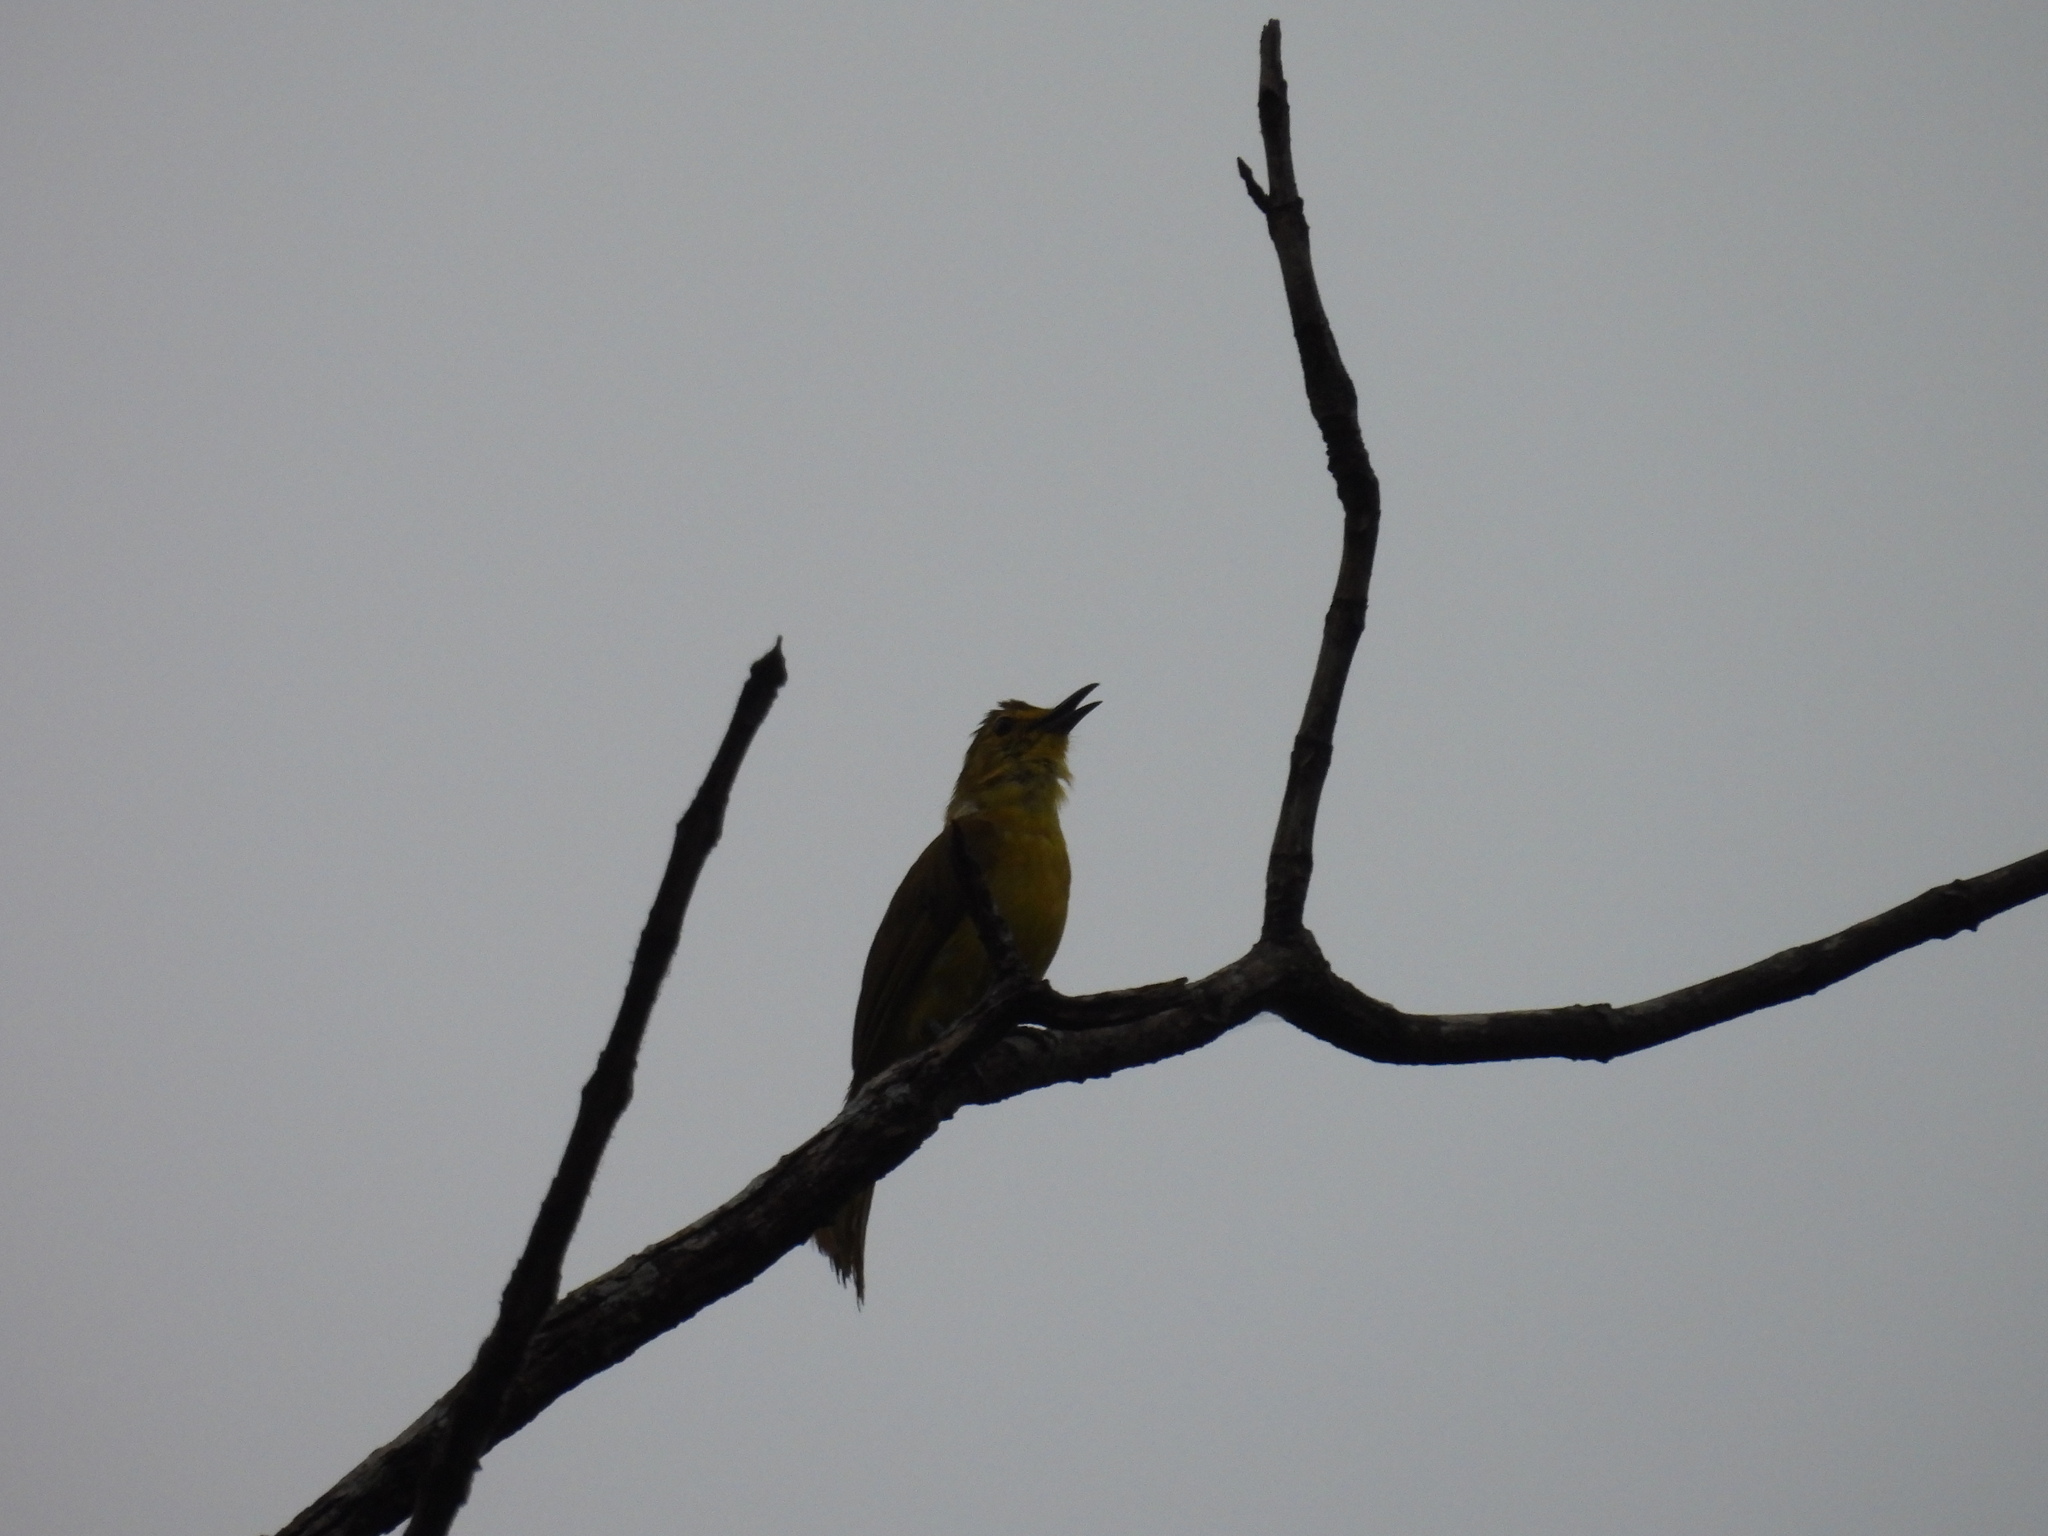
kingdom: Animalia
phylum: Chordata
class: Aves
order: Passeriformes
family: Pycnonotidae
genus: Acritillas
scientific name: Acritillas indica
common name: Yellow-browed bulbul
